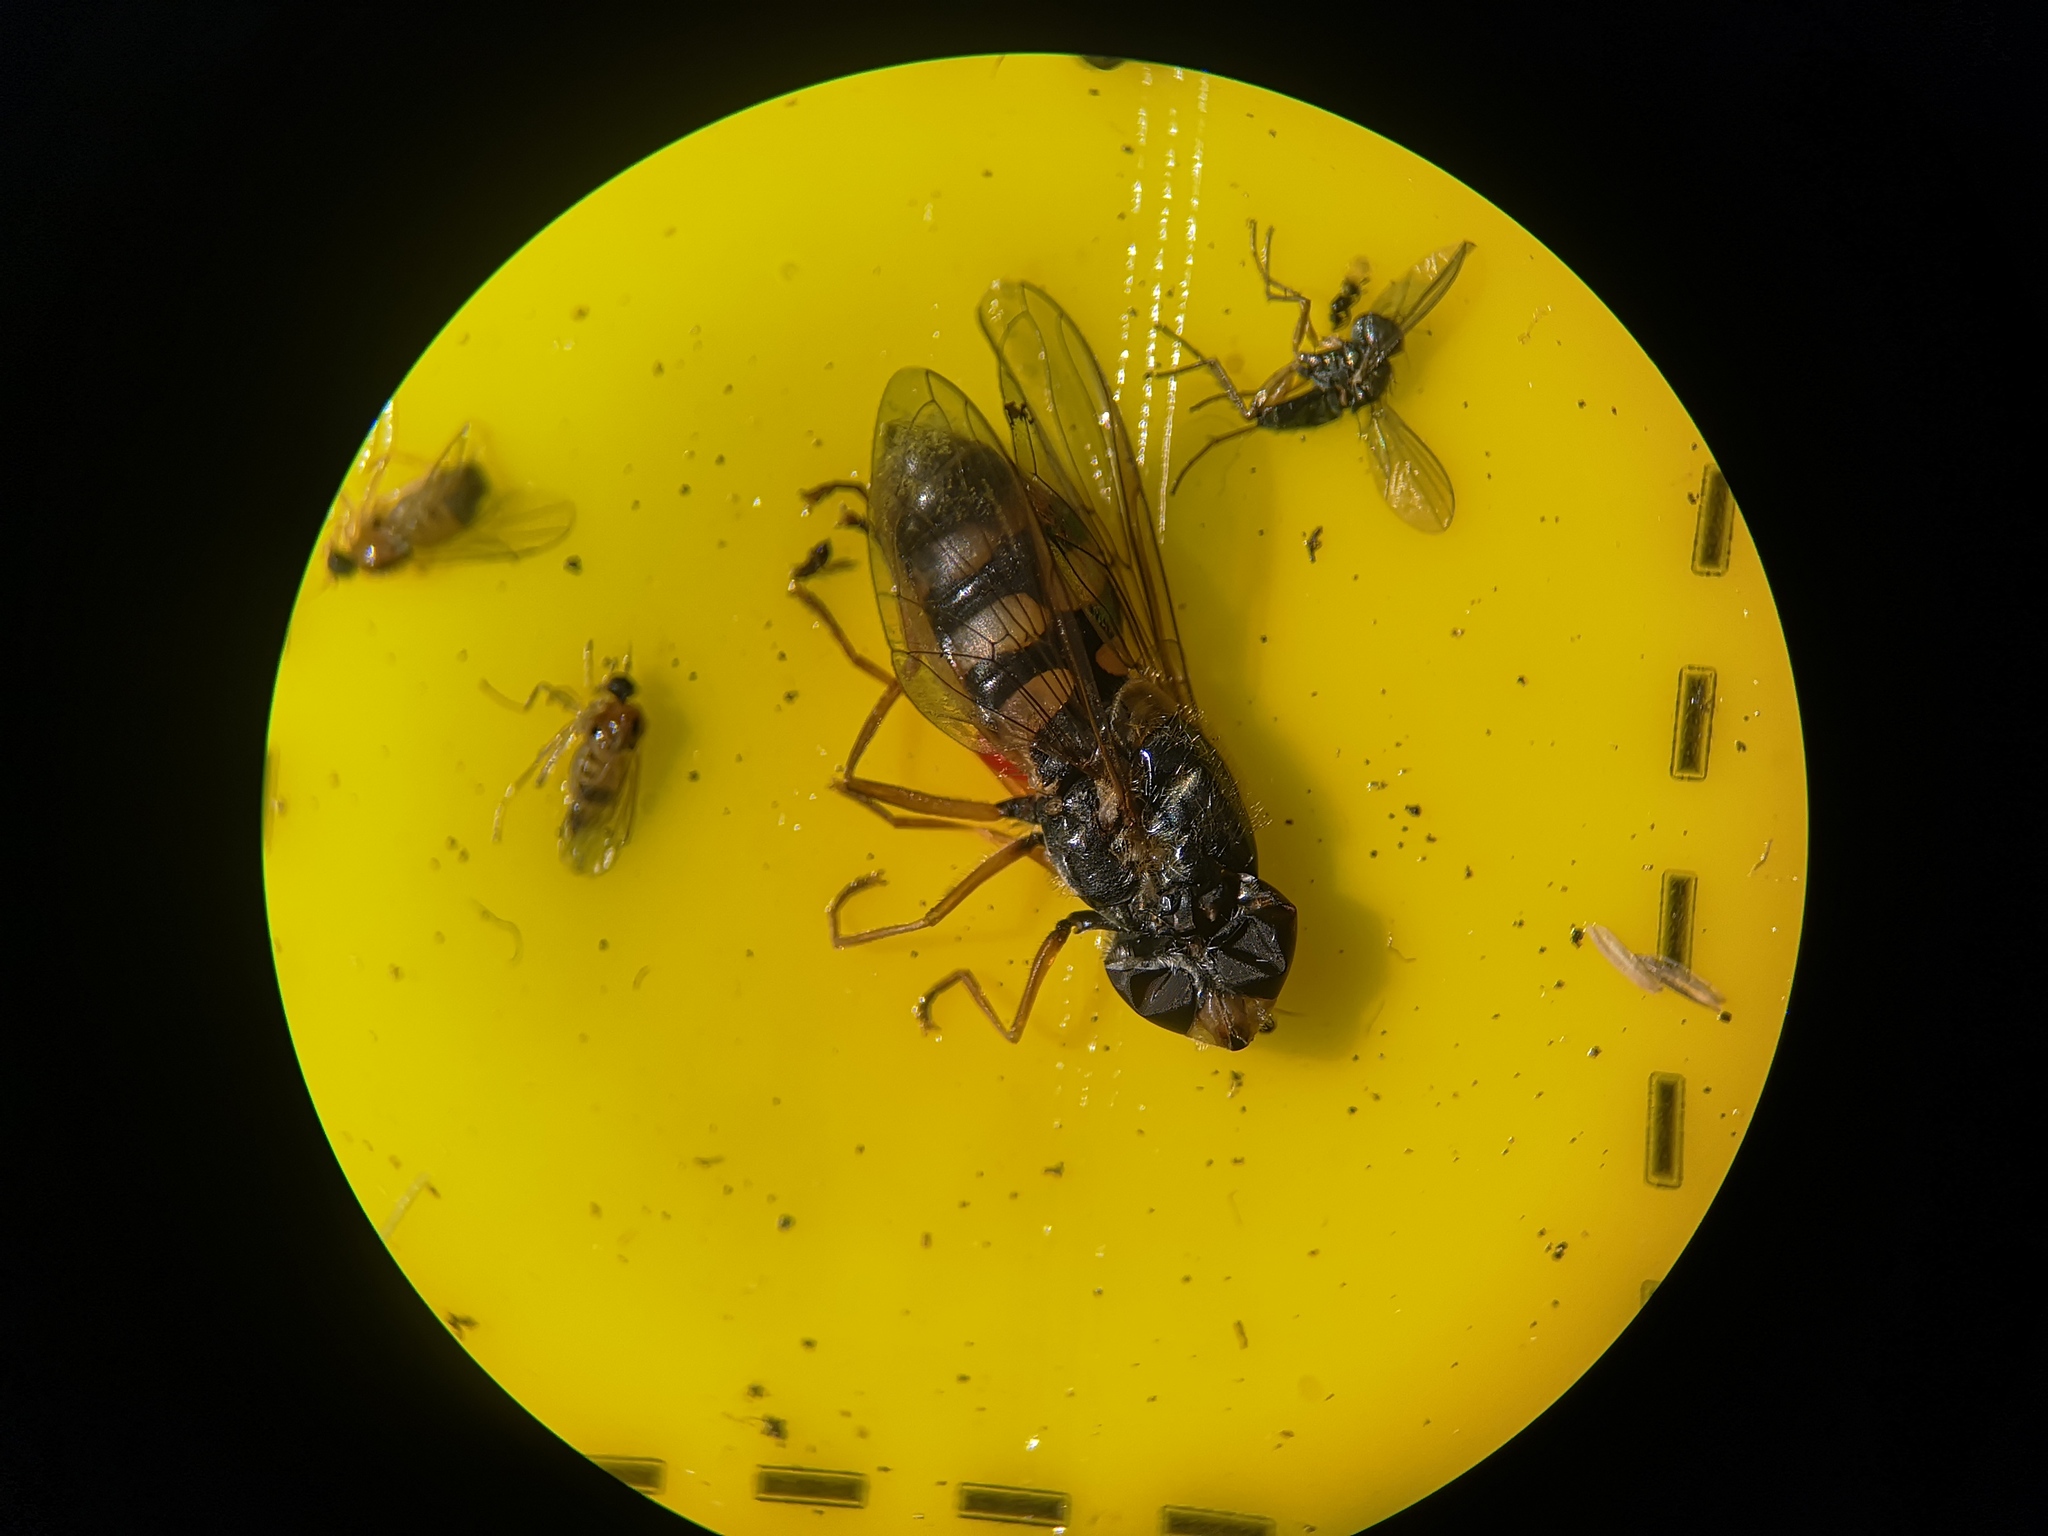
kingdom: Animalia
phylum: Arthropoda
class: Insecta
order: Diptera
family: Syrphidae
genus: Eupeodes
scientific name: Eupeodes corollae
